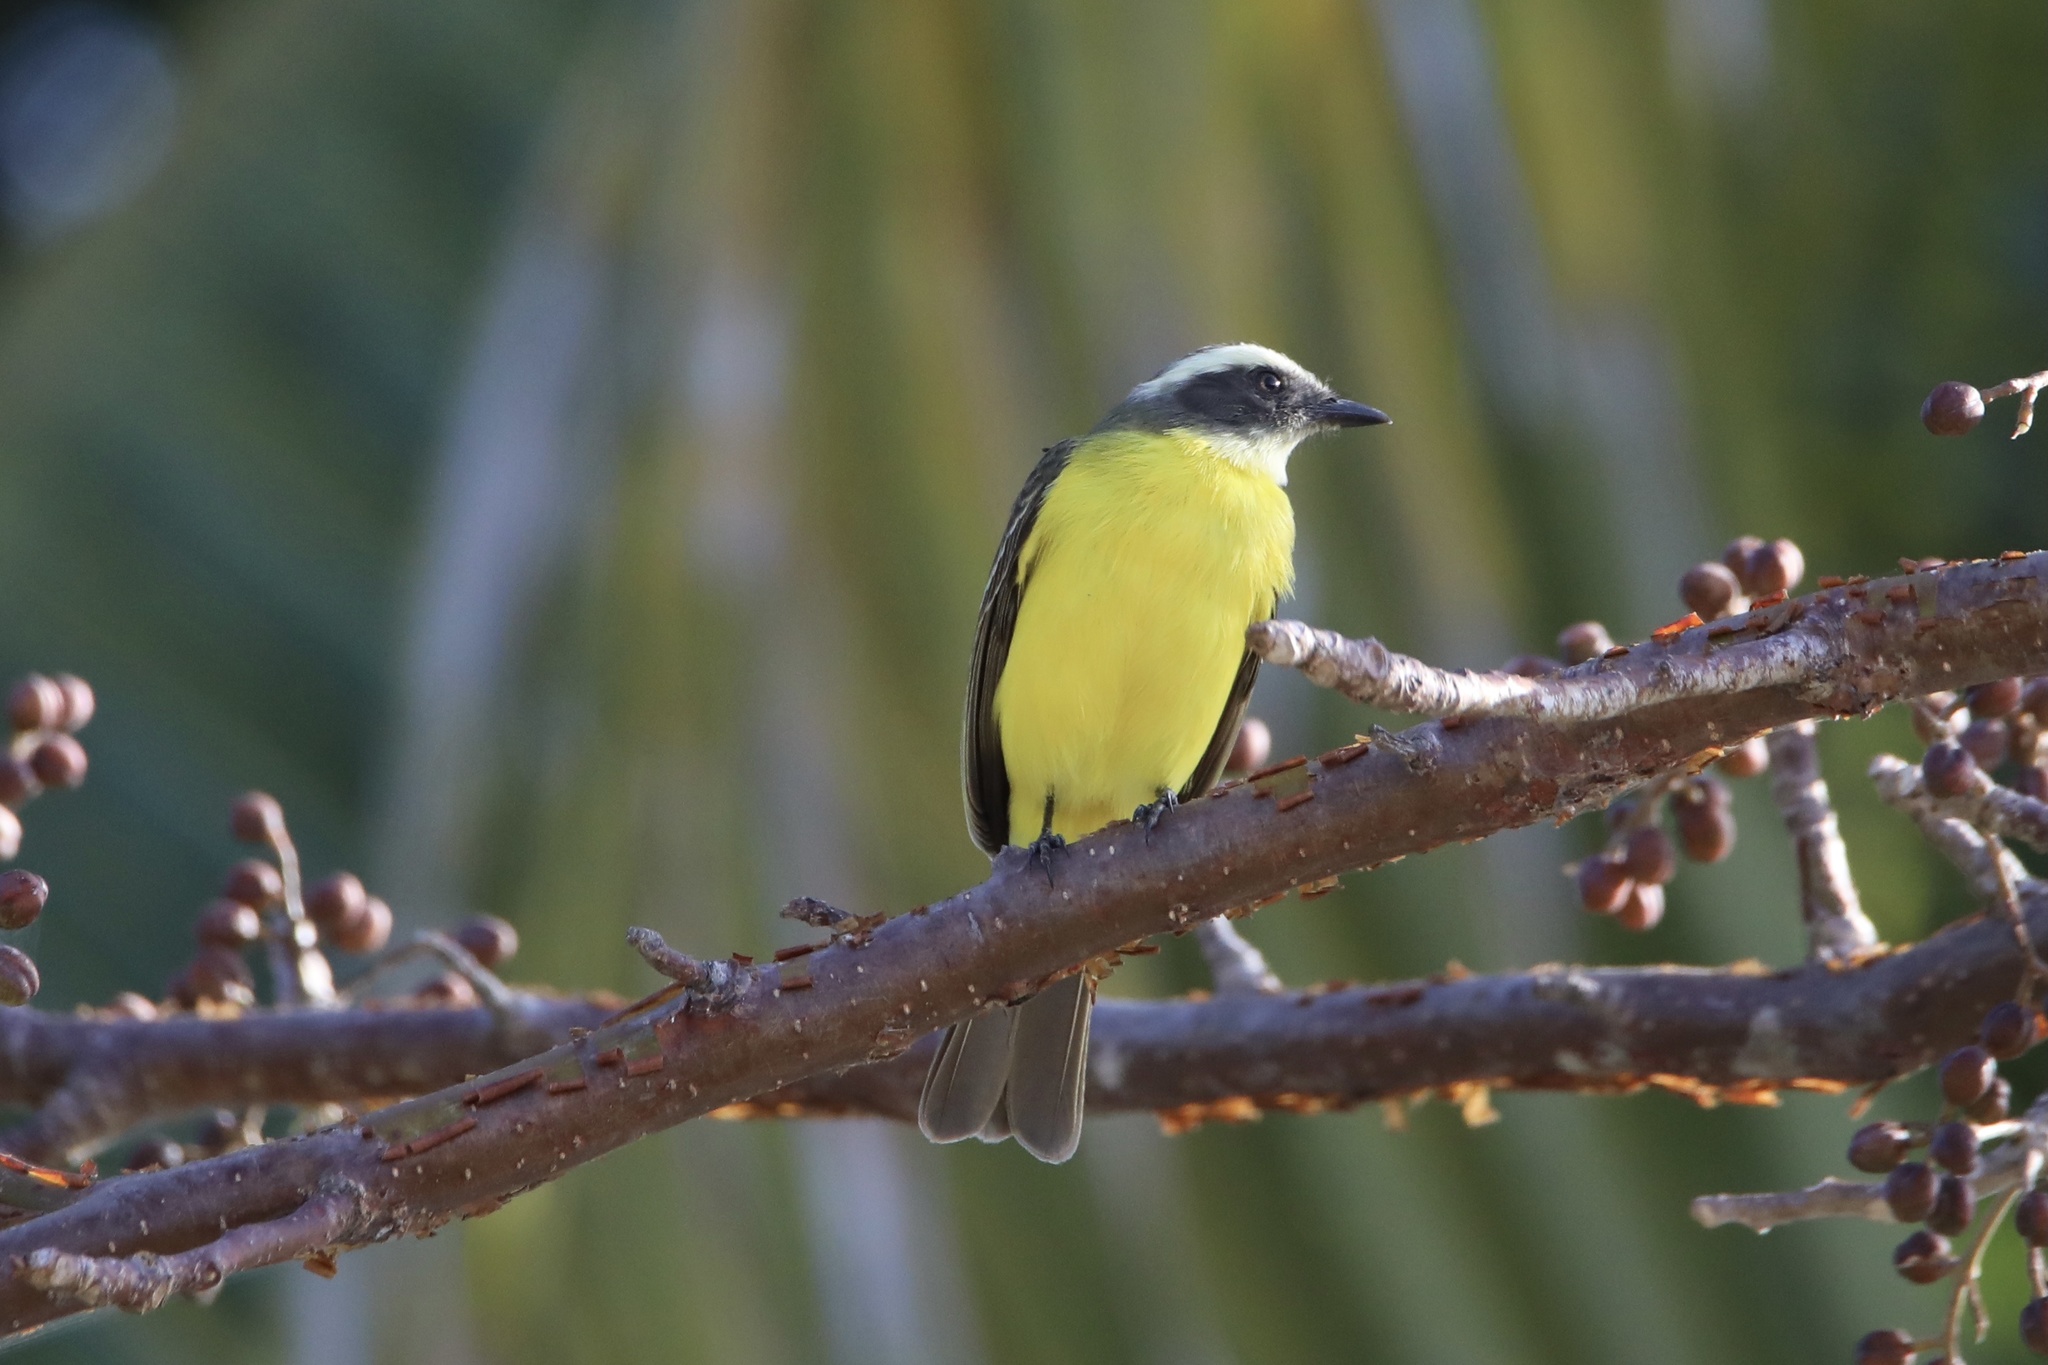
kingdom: Animalia
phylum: Chordata
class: Aves
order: Passeriformes
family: Tyrannidae
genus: Myiozetetes
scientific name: Myiozetetes similis
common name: Social flycatcher
